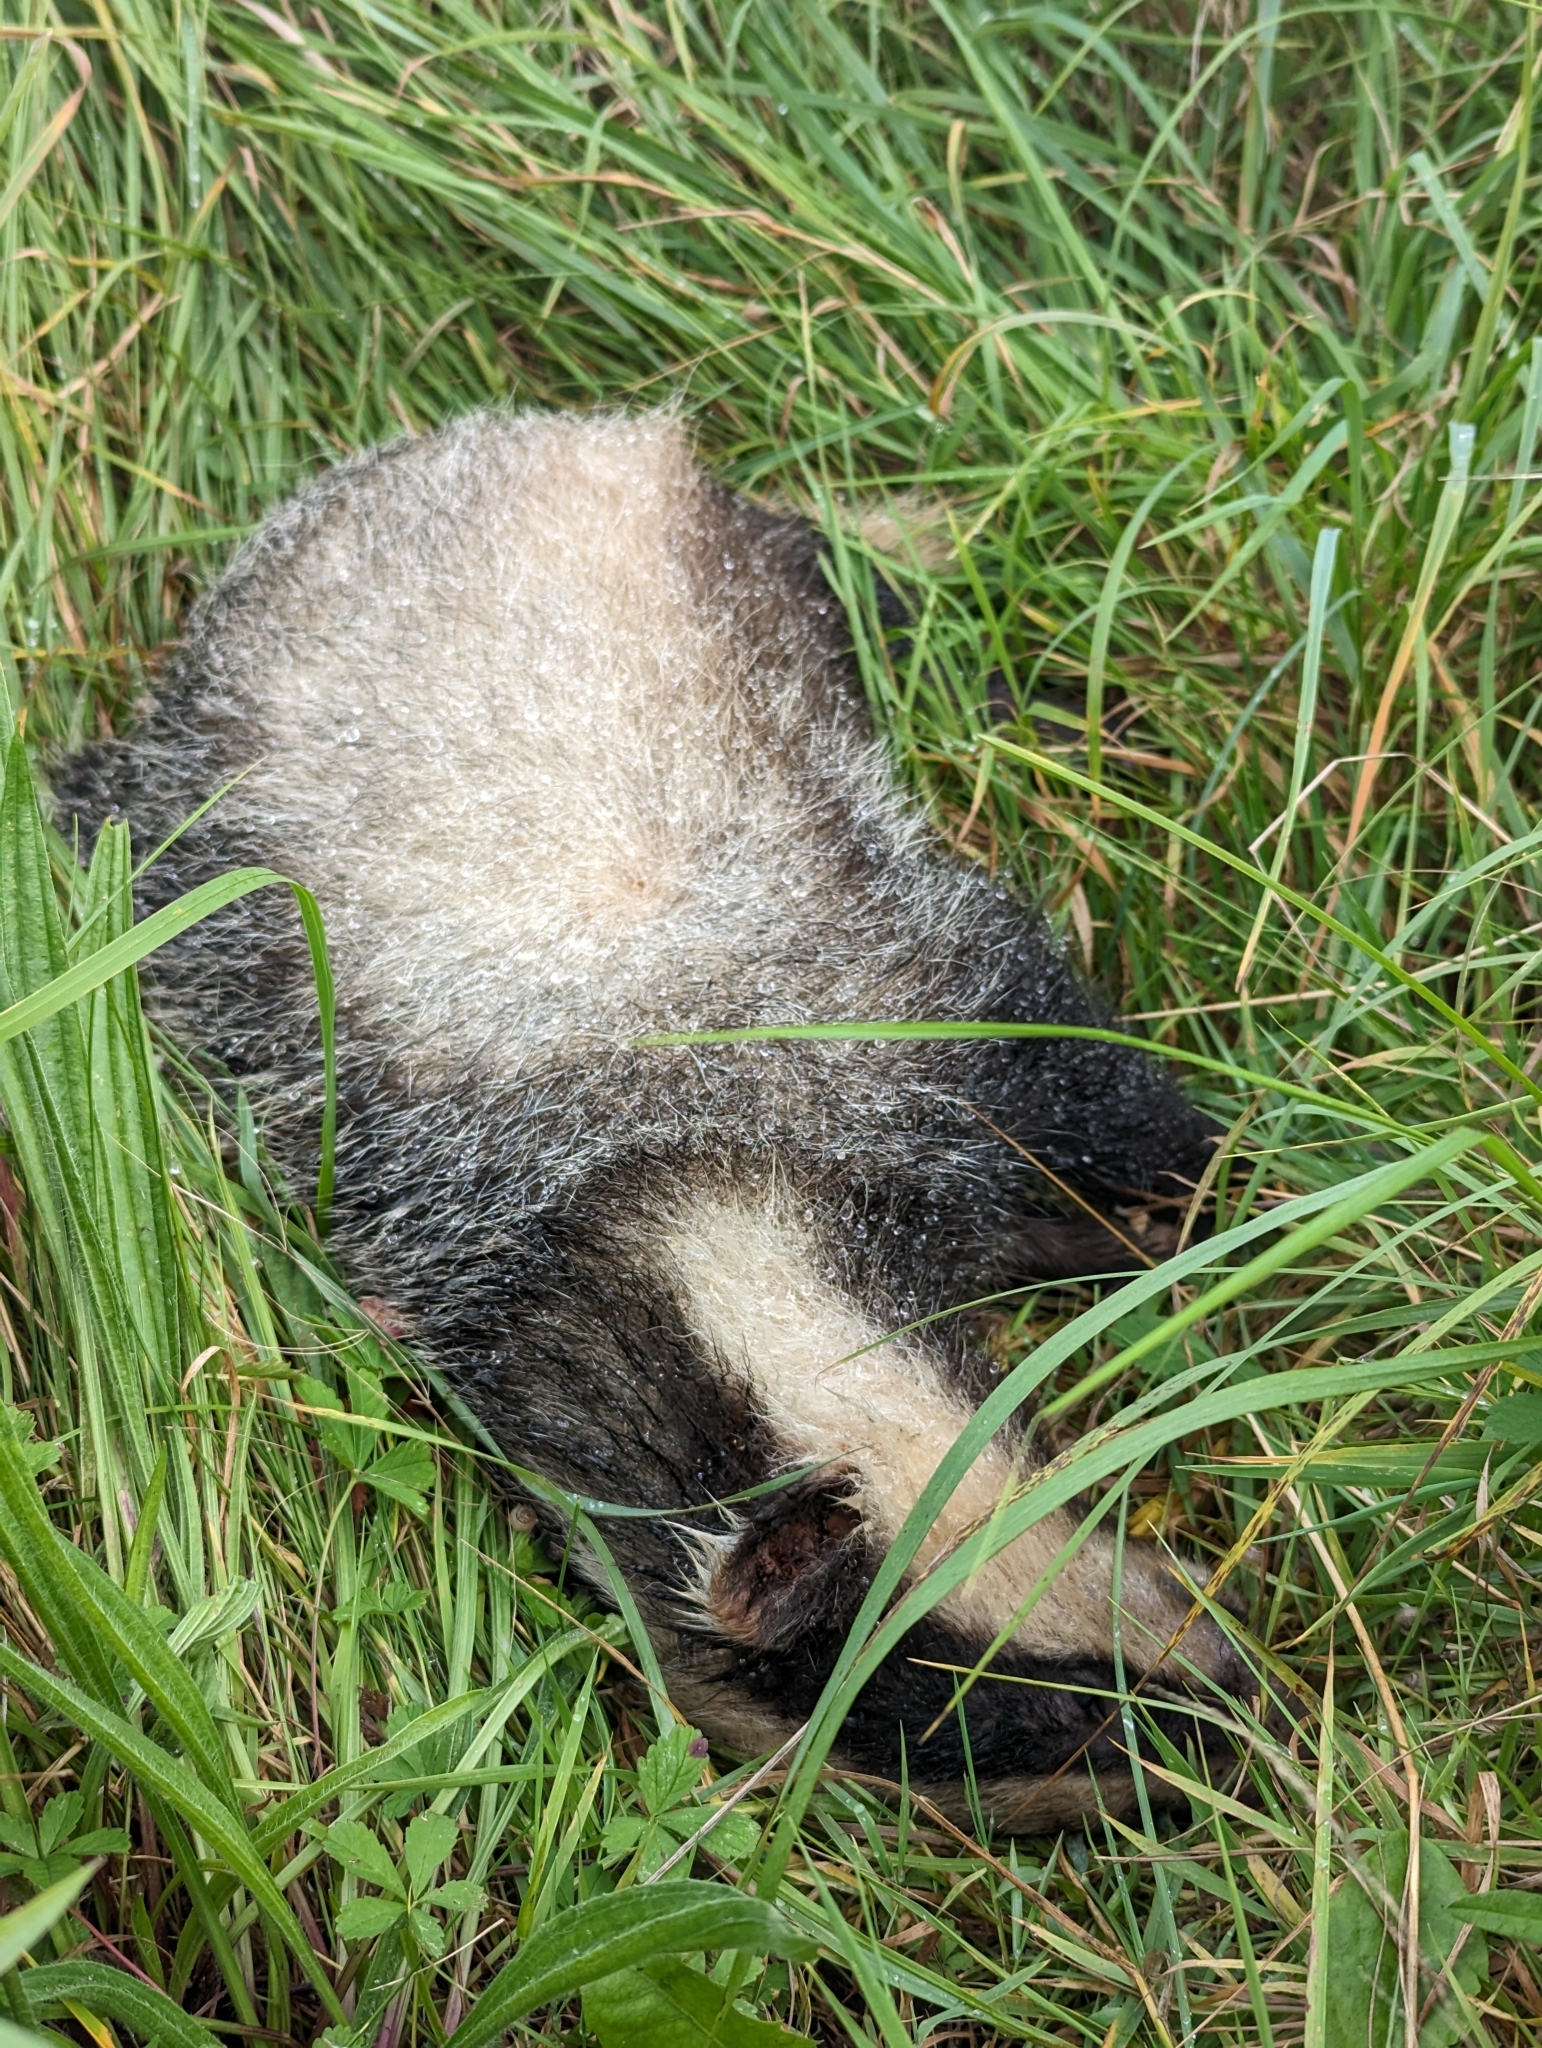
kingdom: Animalia
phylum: Chordata
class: Mammalia
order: Carnivora
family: Mustelidae
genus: Meles
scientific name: Meles meles
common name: Eurasian badger
